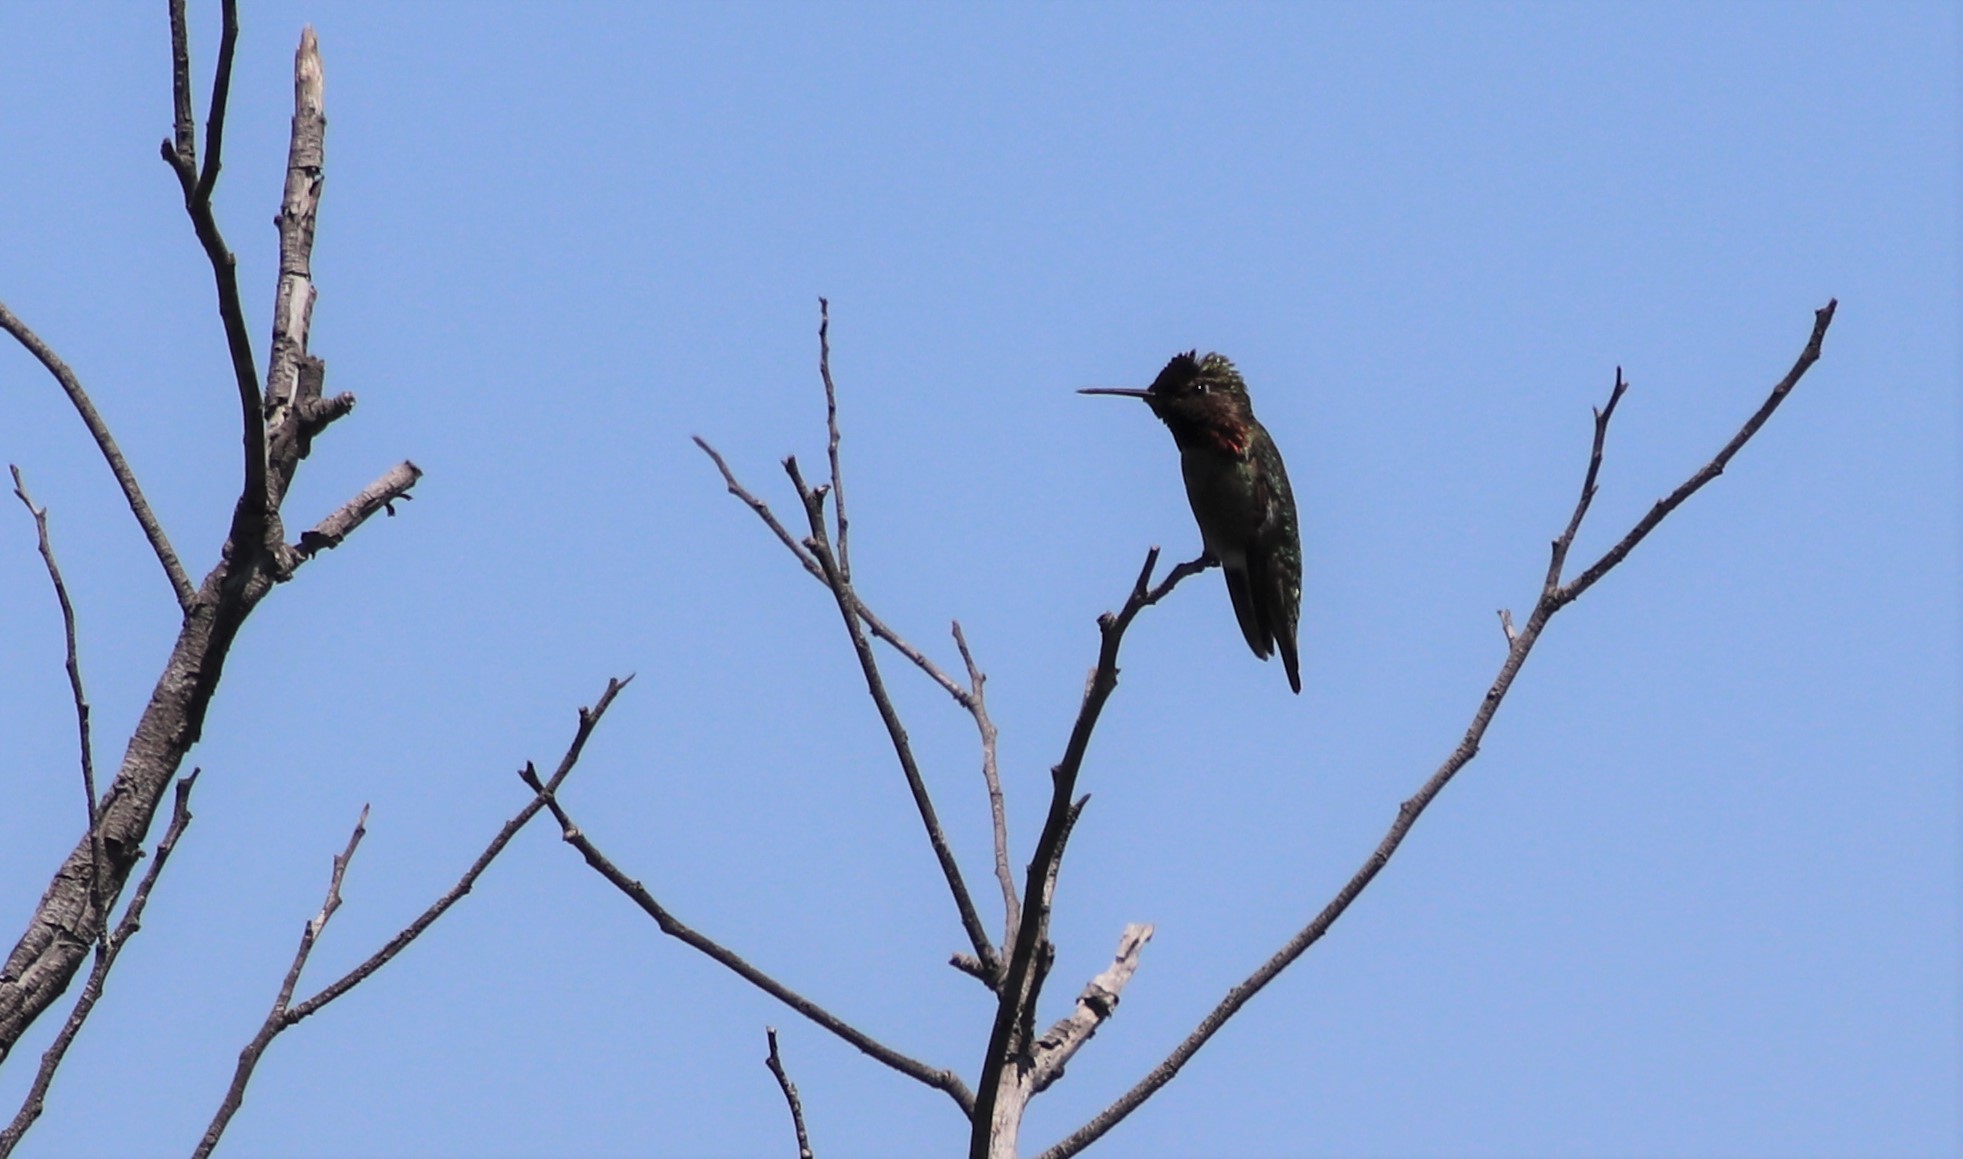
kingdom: Animalia
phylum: Chordata
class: Aves
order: Apodiformes
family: Trochilidae
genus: Calypte
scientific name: Calypte anna
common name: Anna's hummingbird
